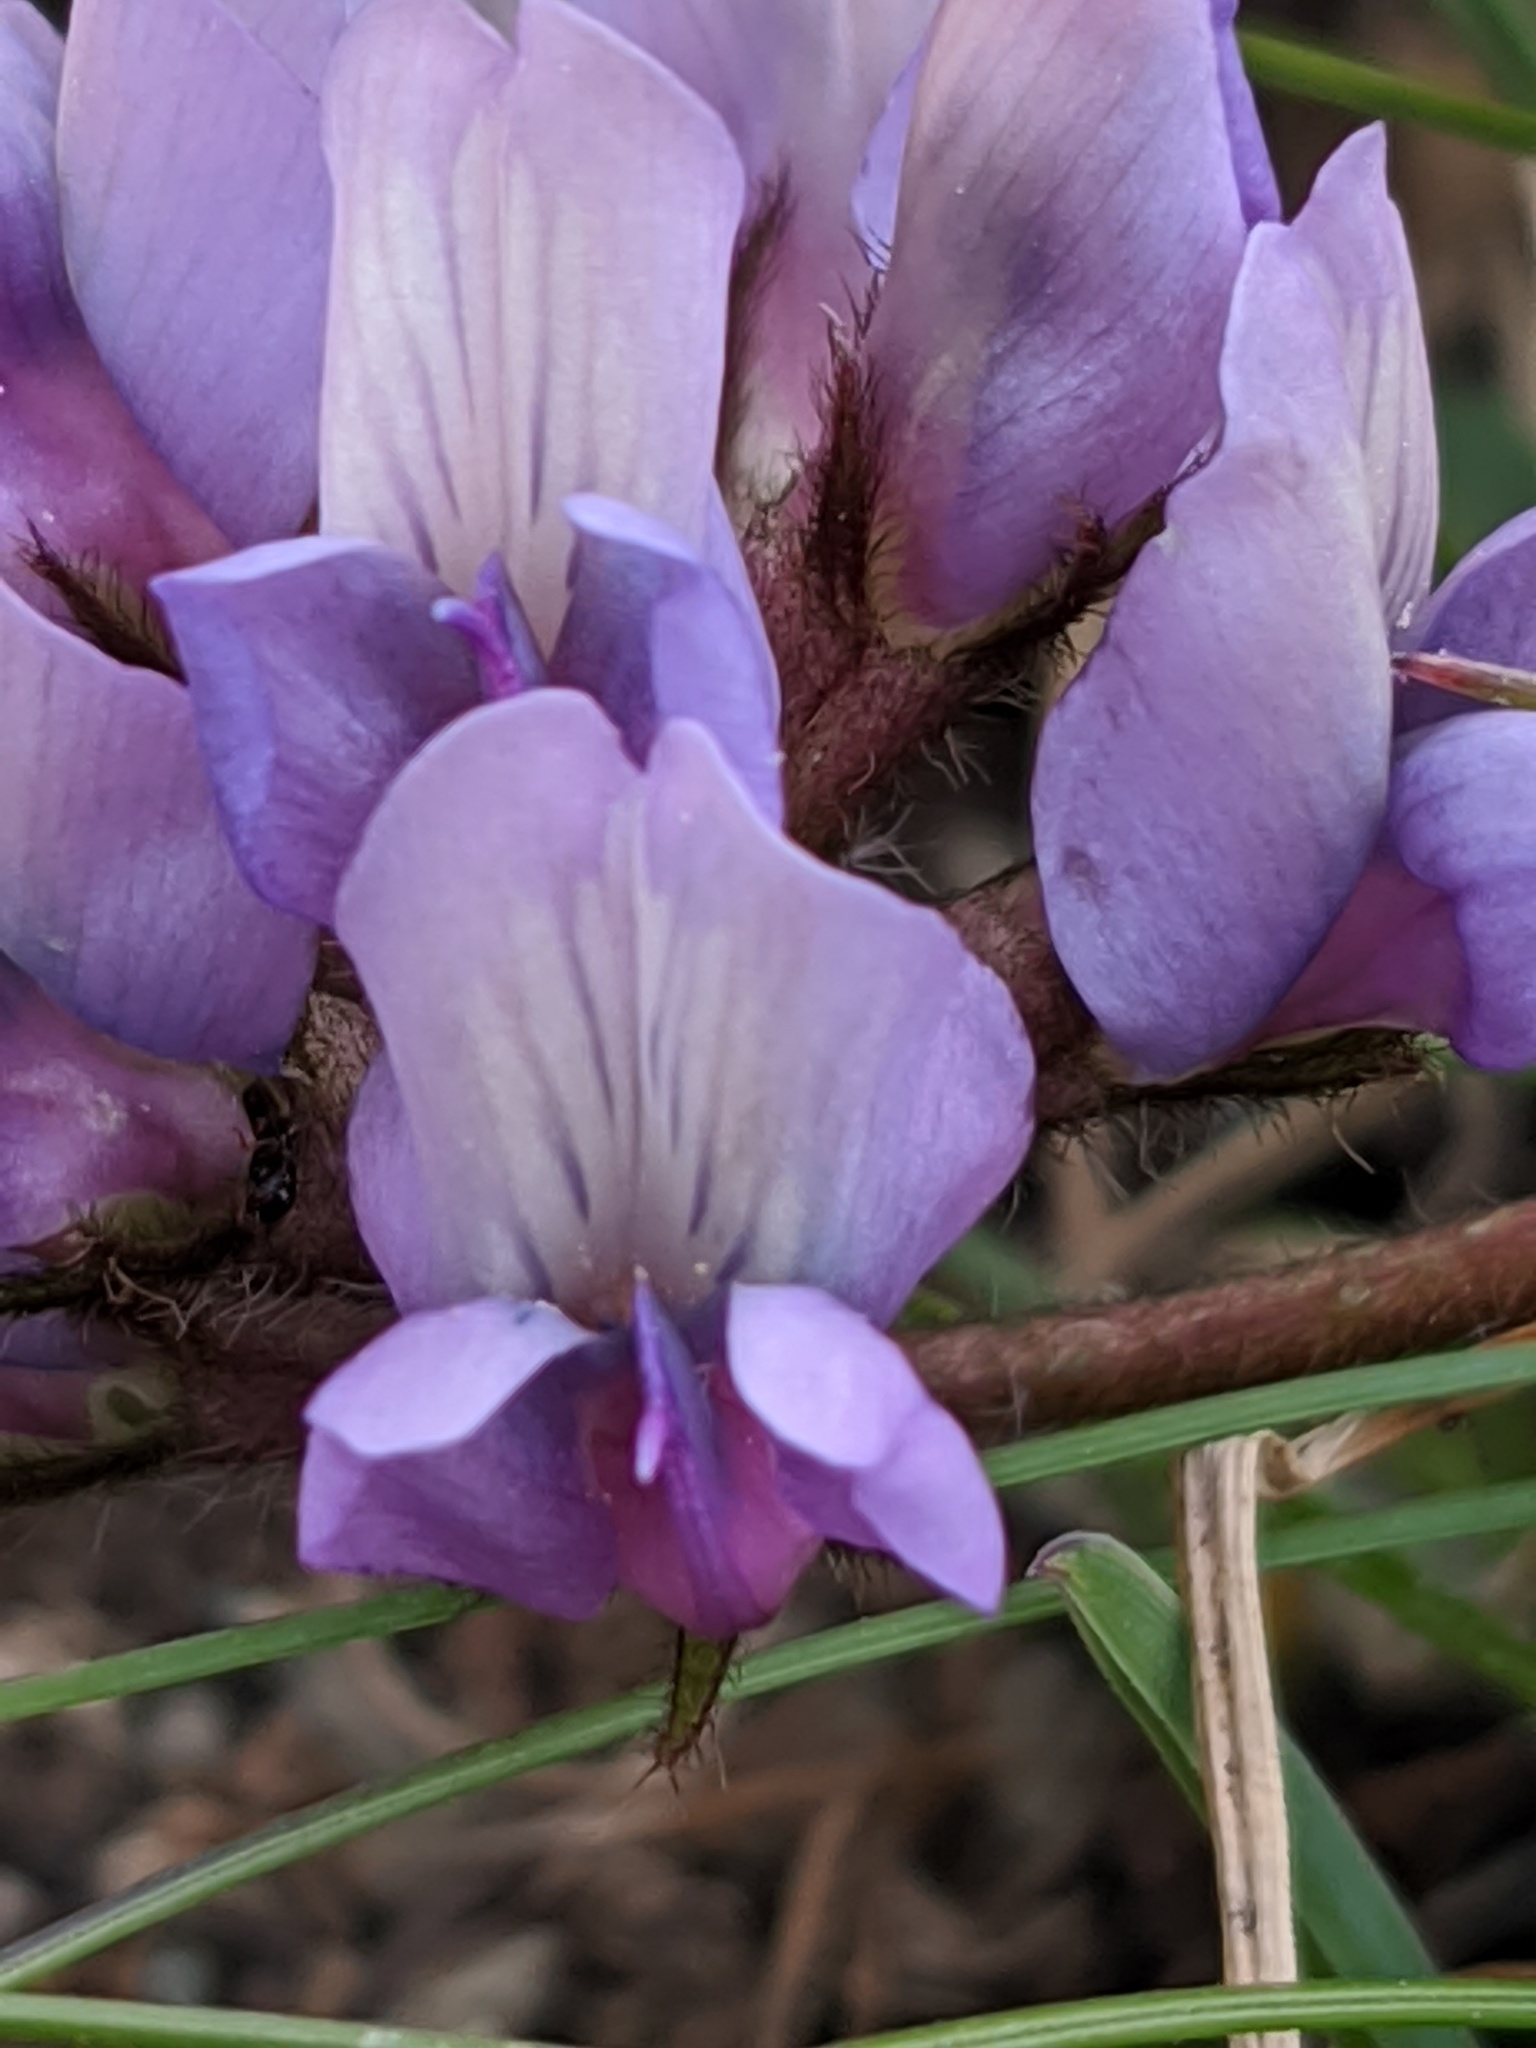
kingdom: Plantae
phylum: Tracheophyta
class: Magnoliopsida
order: Fabales
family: Fabaceae
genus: Oxytropis
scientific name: Oxytropis helvetica
